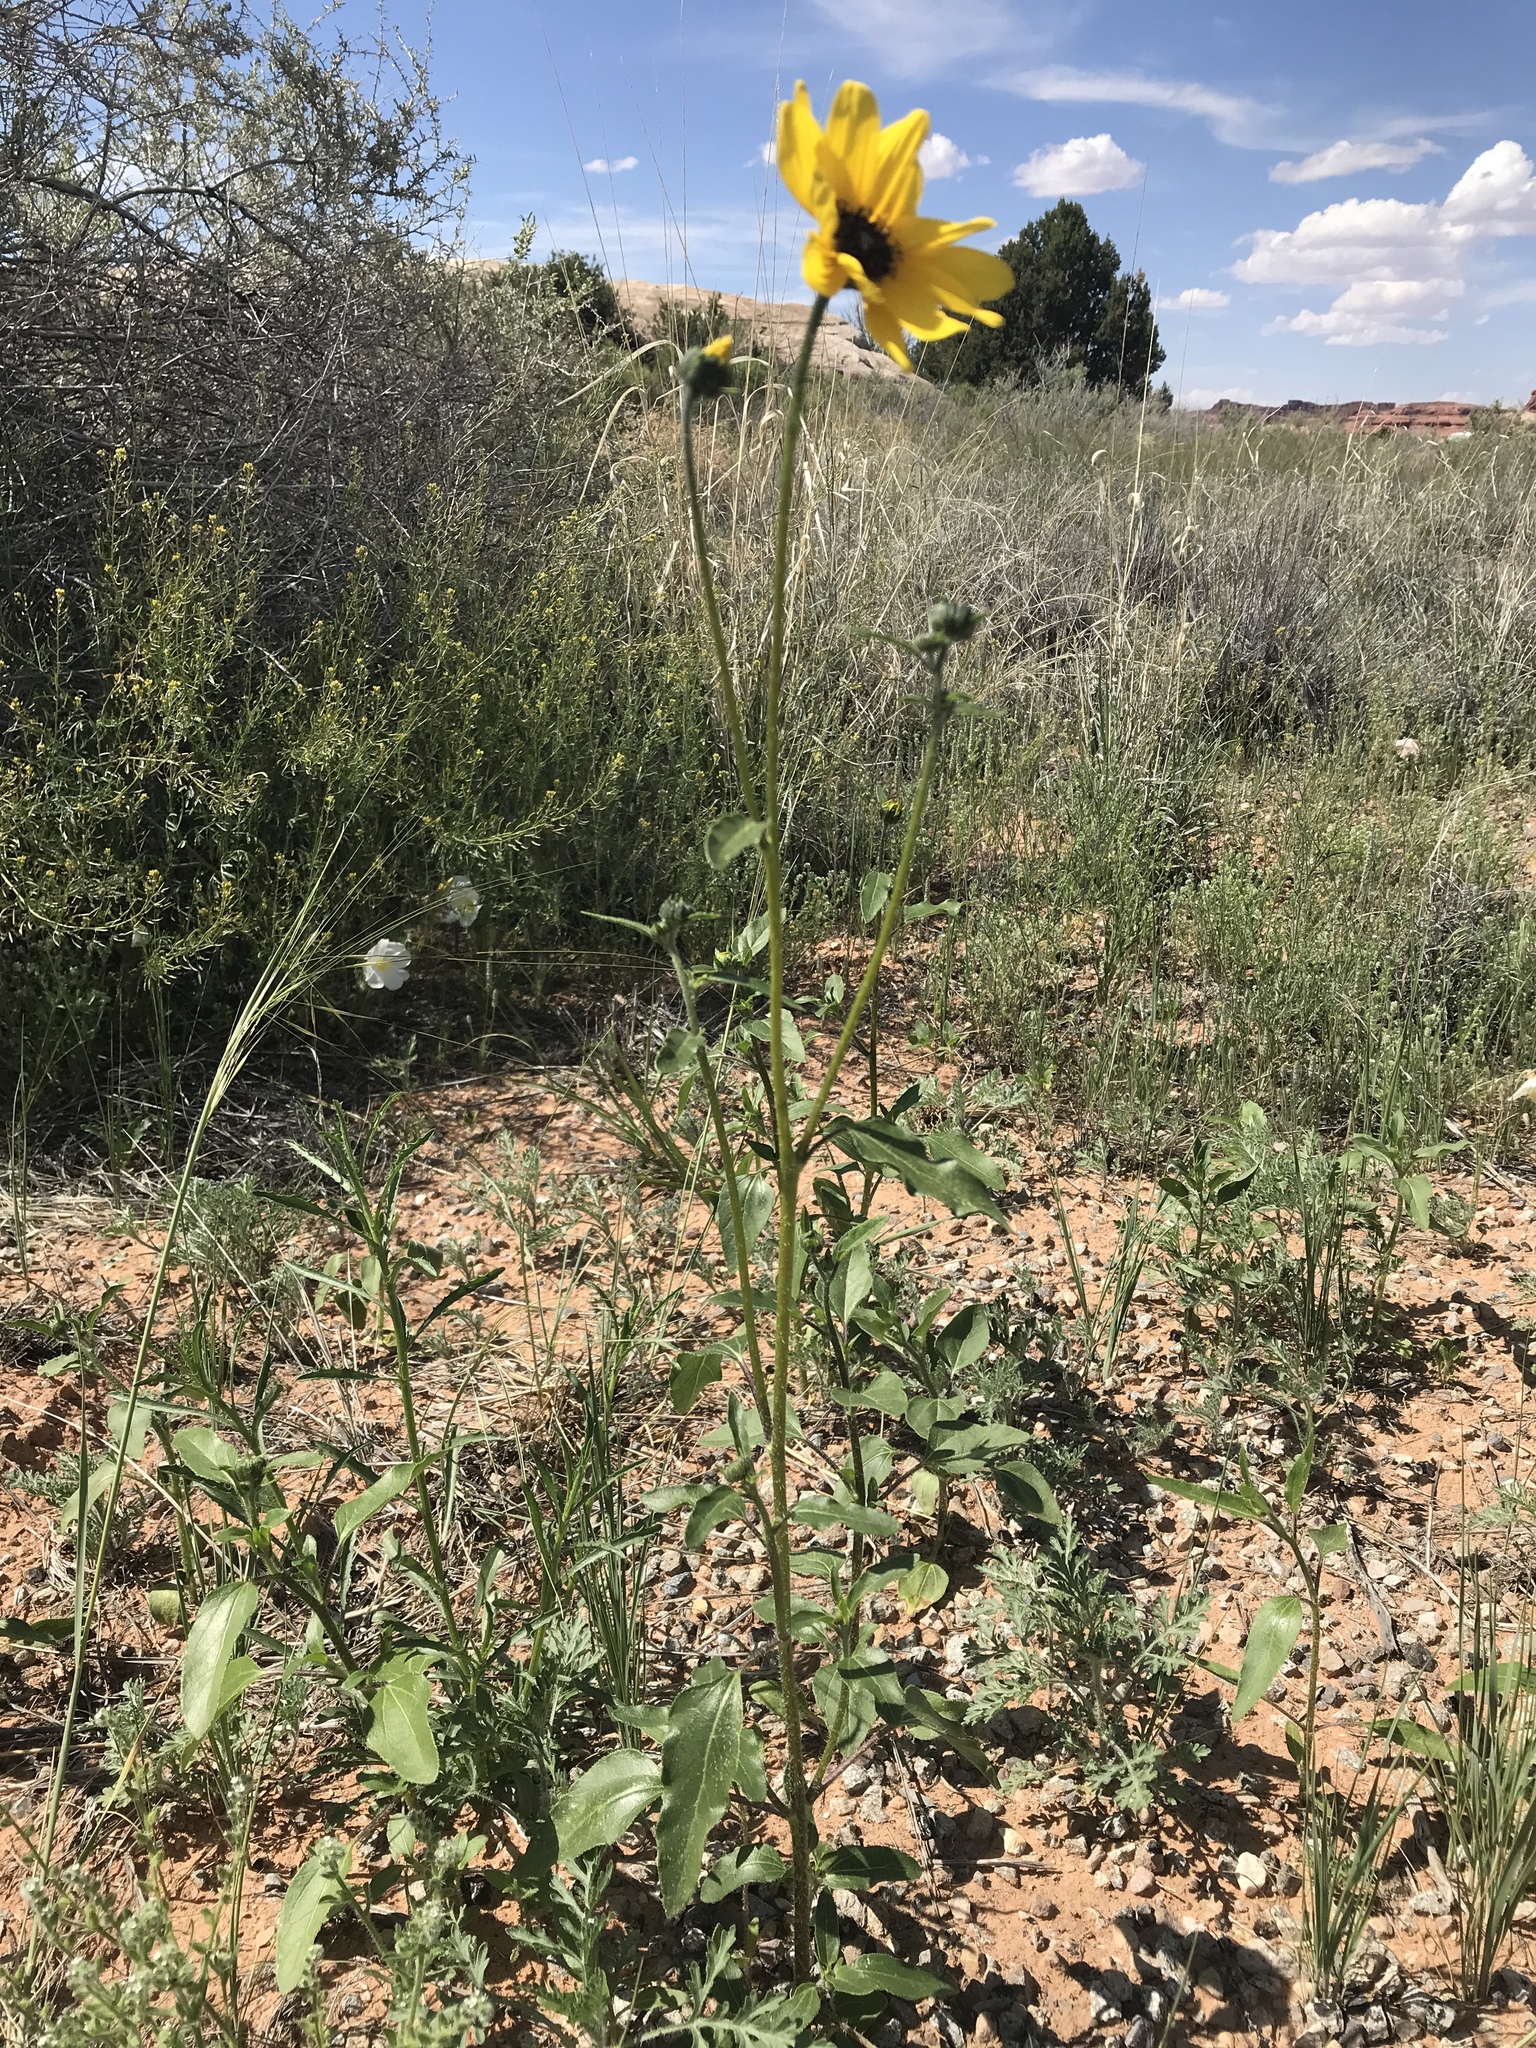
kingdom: Plantae
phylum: Tracheophyta
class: Magnoliopsida
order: Asterales
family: Asteraceae
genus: Helianthus
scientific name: Helianthus petiolaris
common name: Lesser sunflower
